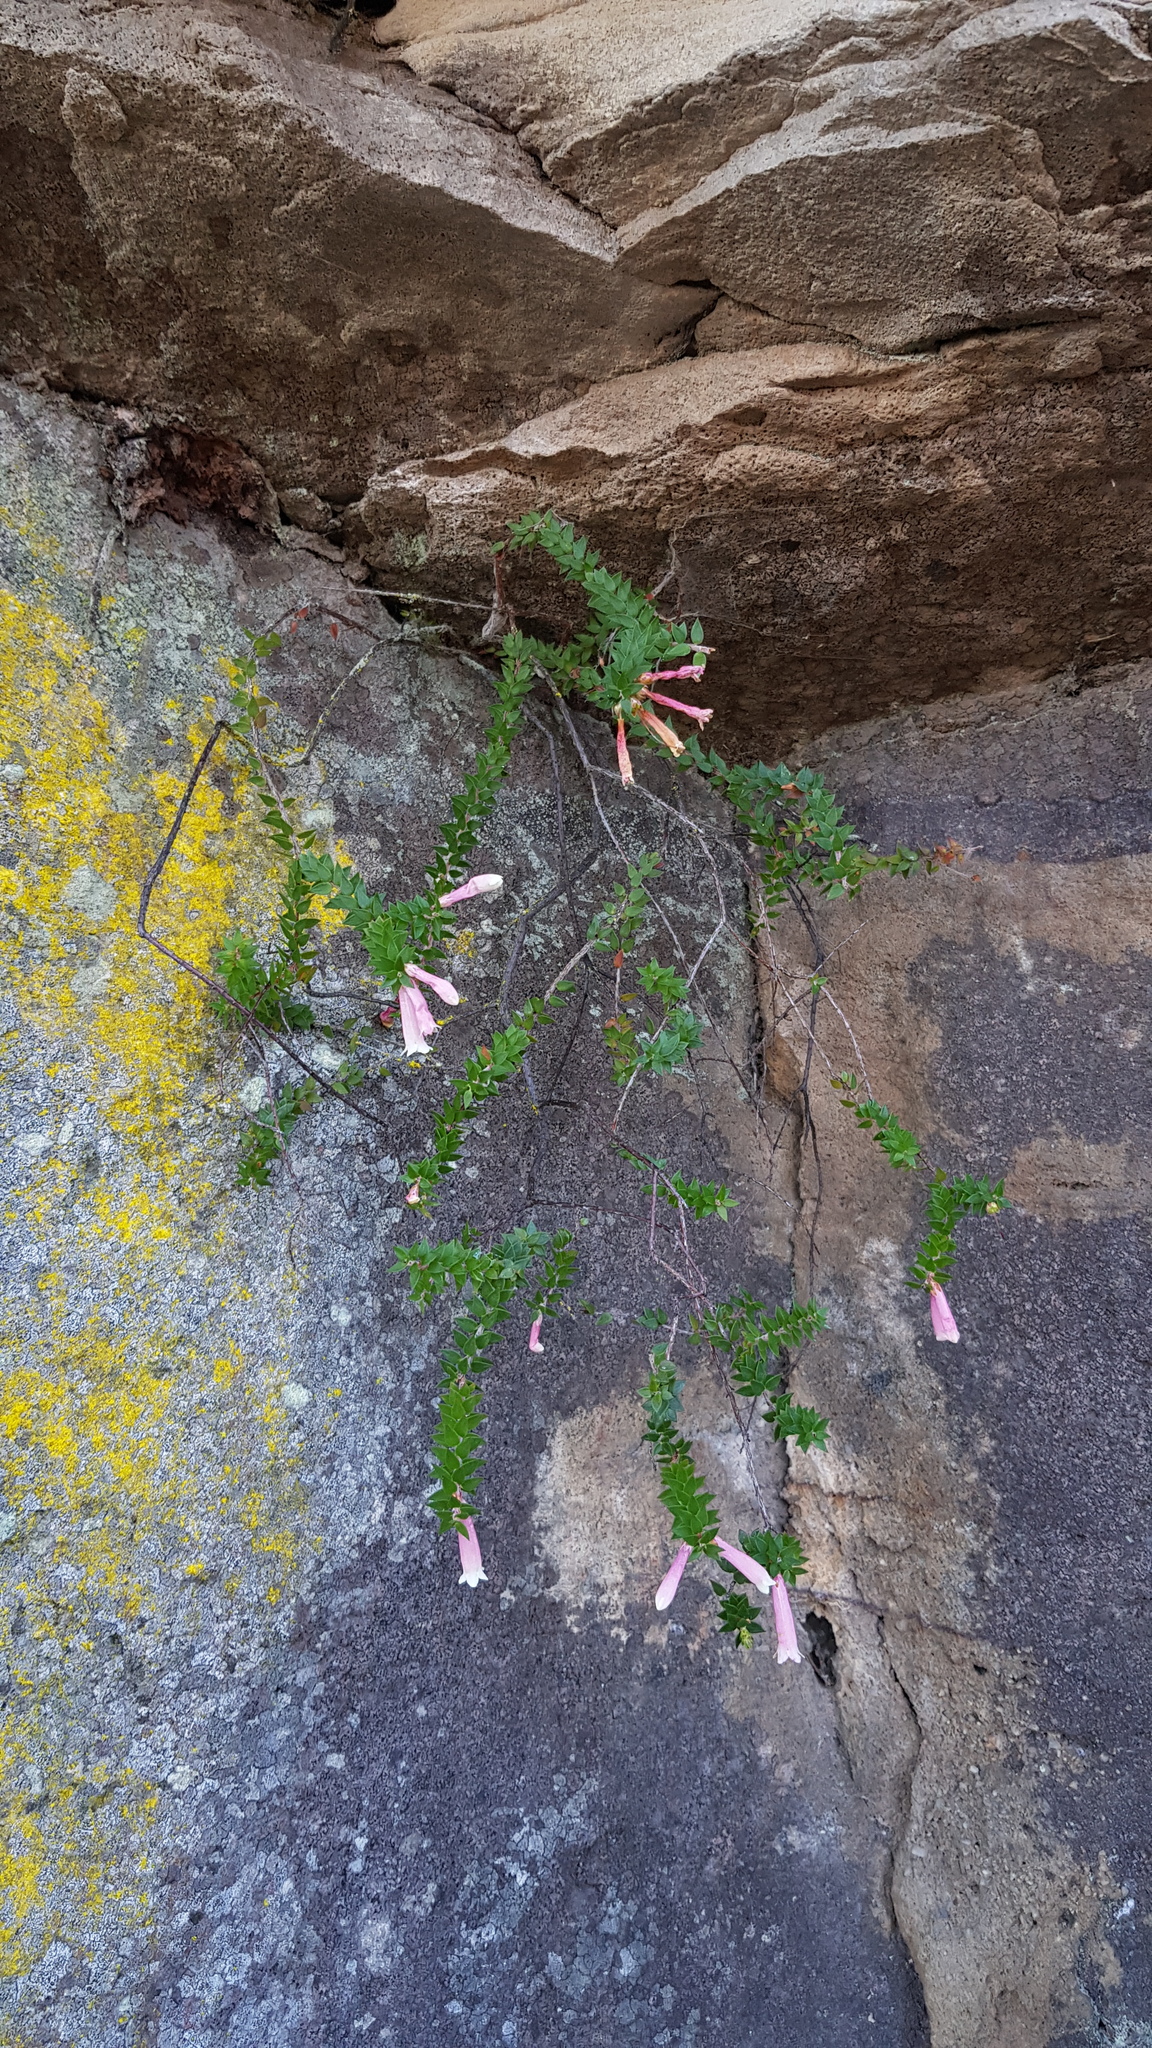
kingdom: Plantae
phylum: Tracheophyta
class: Magnoliopsida
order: Ericales
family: Ericaceae
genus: Epacris
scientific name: Epacris reclinata
